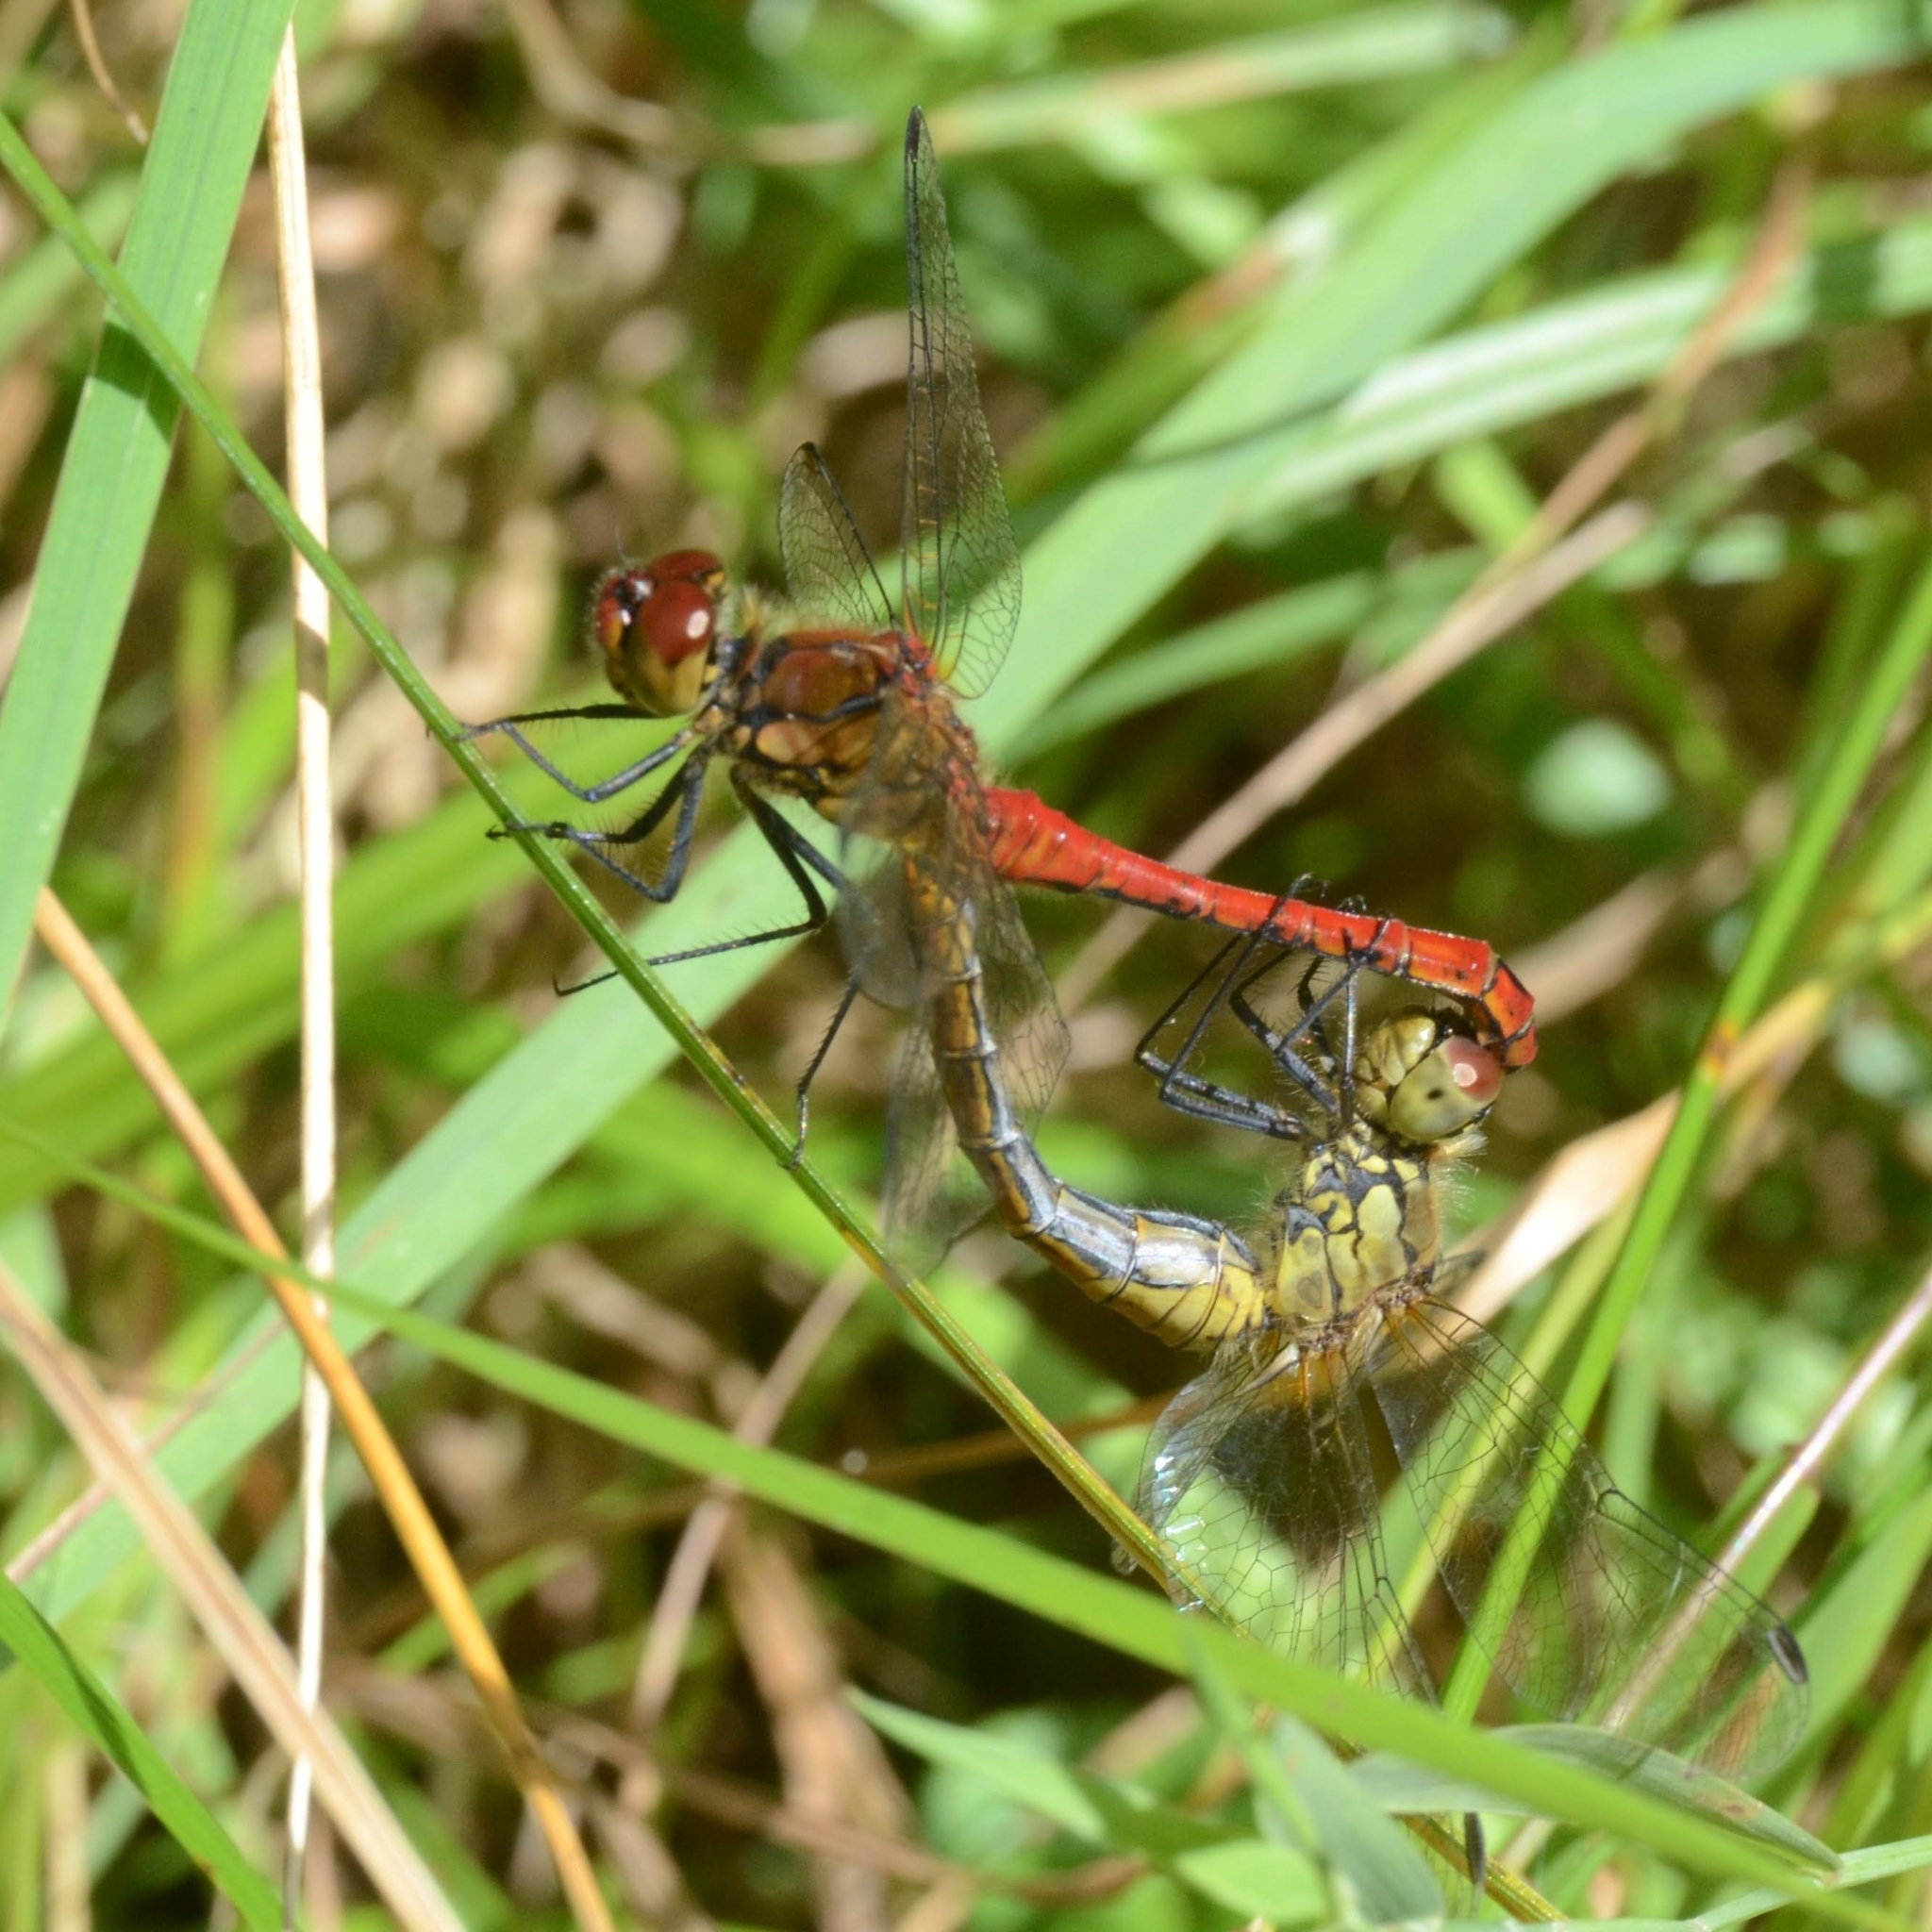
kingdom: Animalia
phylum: Arthropoda
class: Insecta
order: Odonata
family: Libellulidae
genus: Sympetrum
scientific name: Sympetrum sanguineum
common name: Ruddy darter
